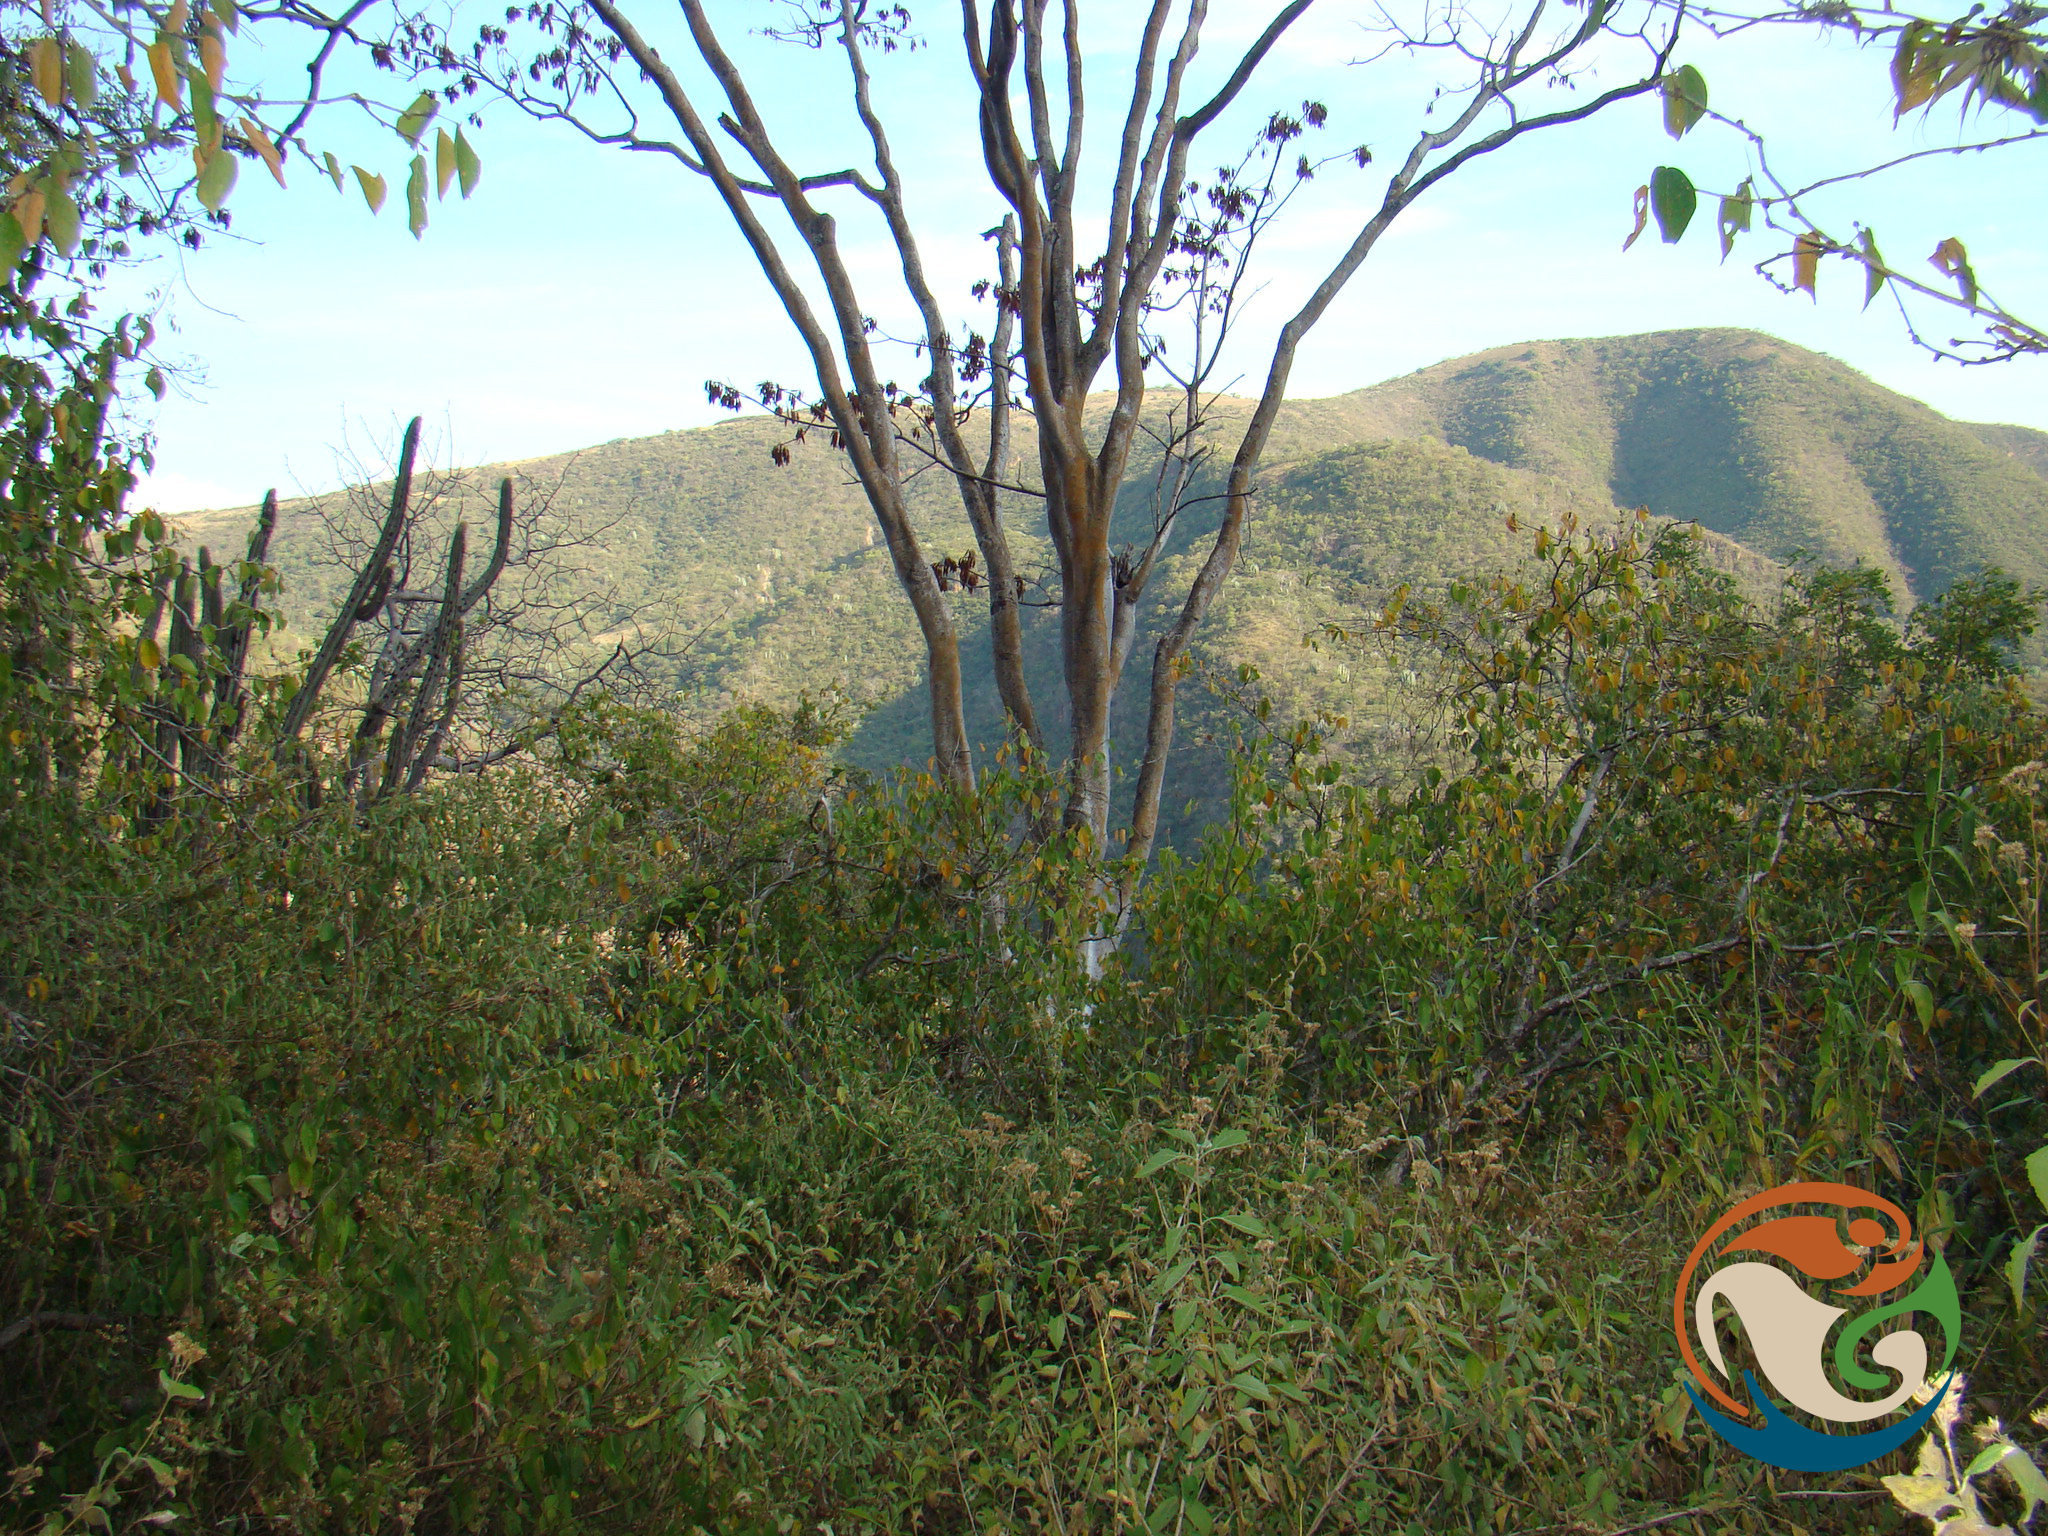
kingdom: Plantae
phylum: Tracheophyta
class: Magnoliopsida
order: Fabales
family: Fabaceae
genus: Conzattia
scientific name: Conzattia multiflora
